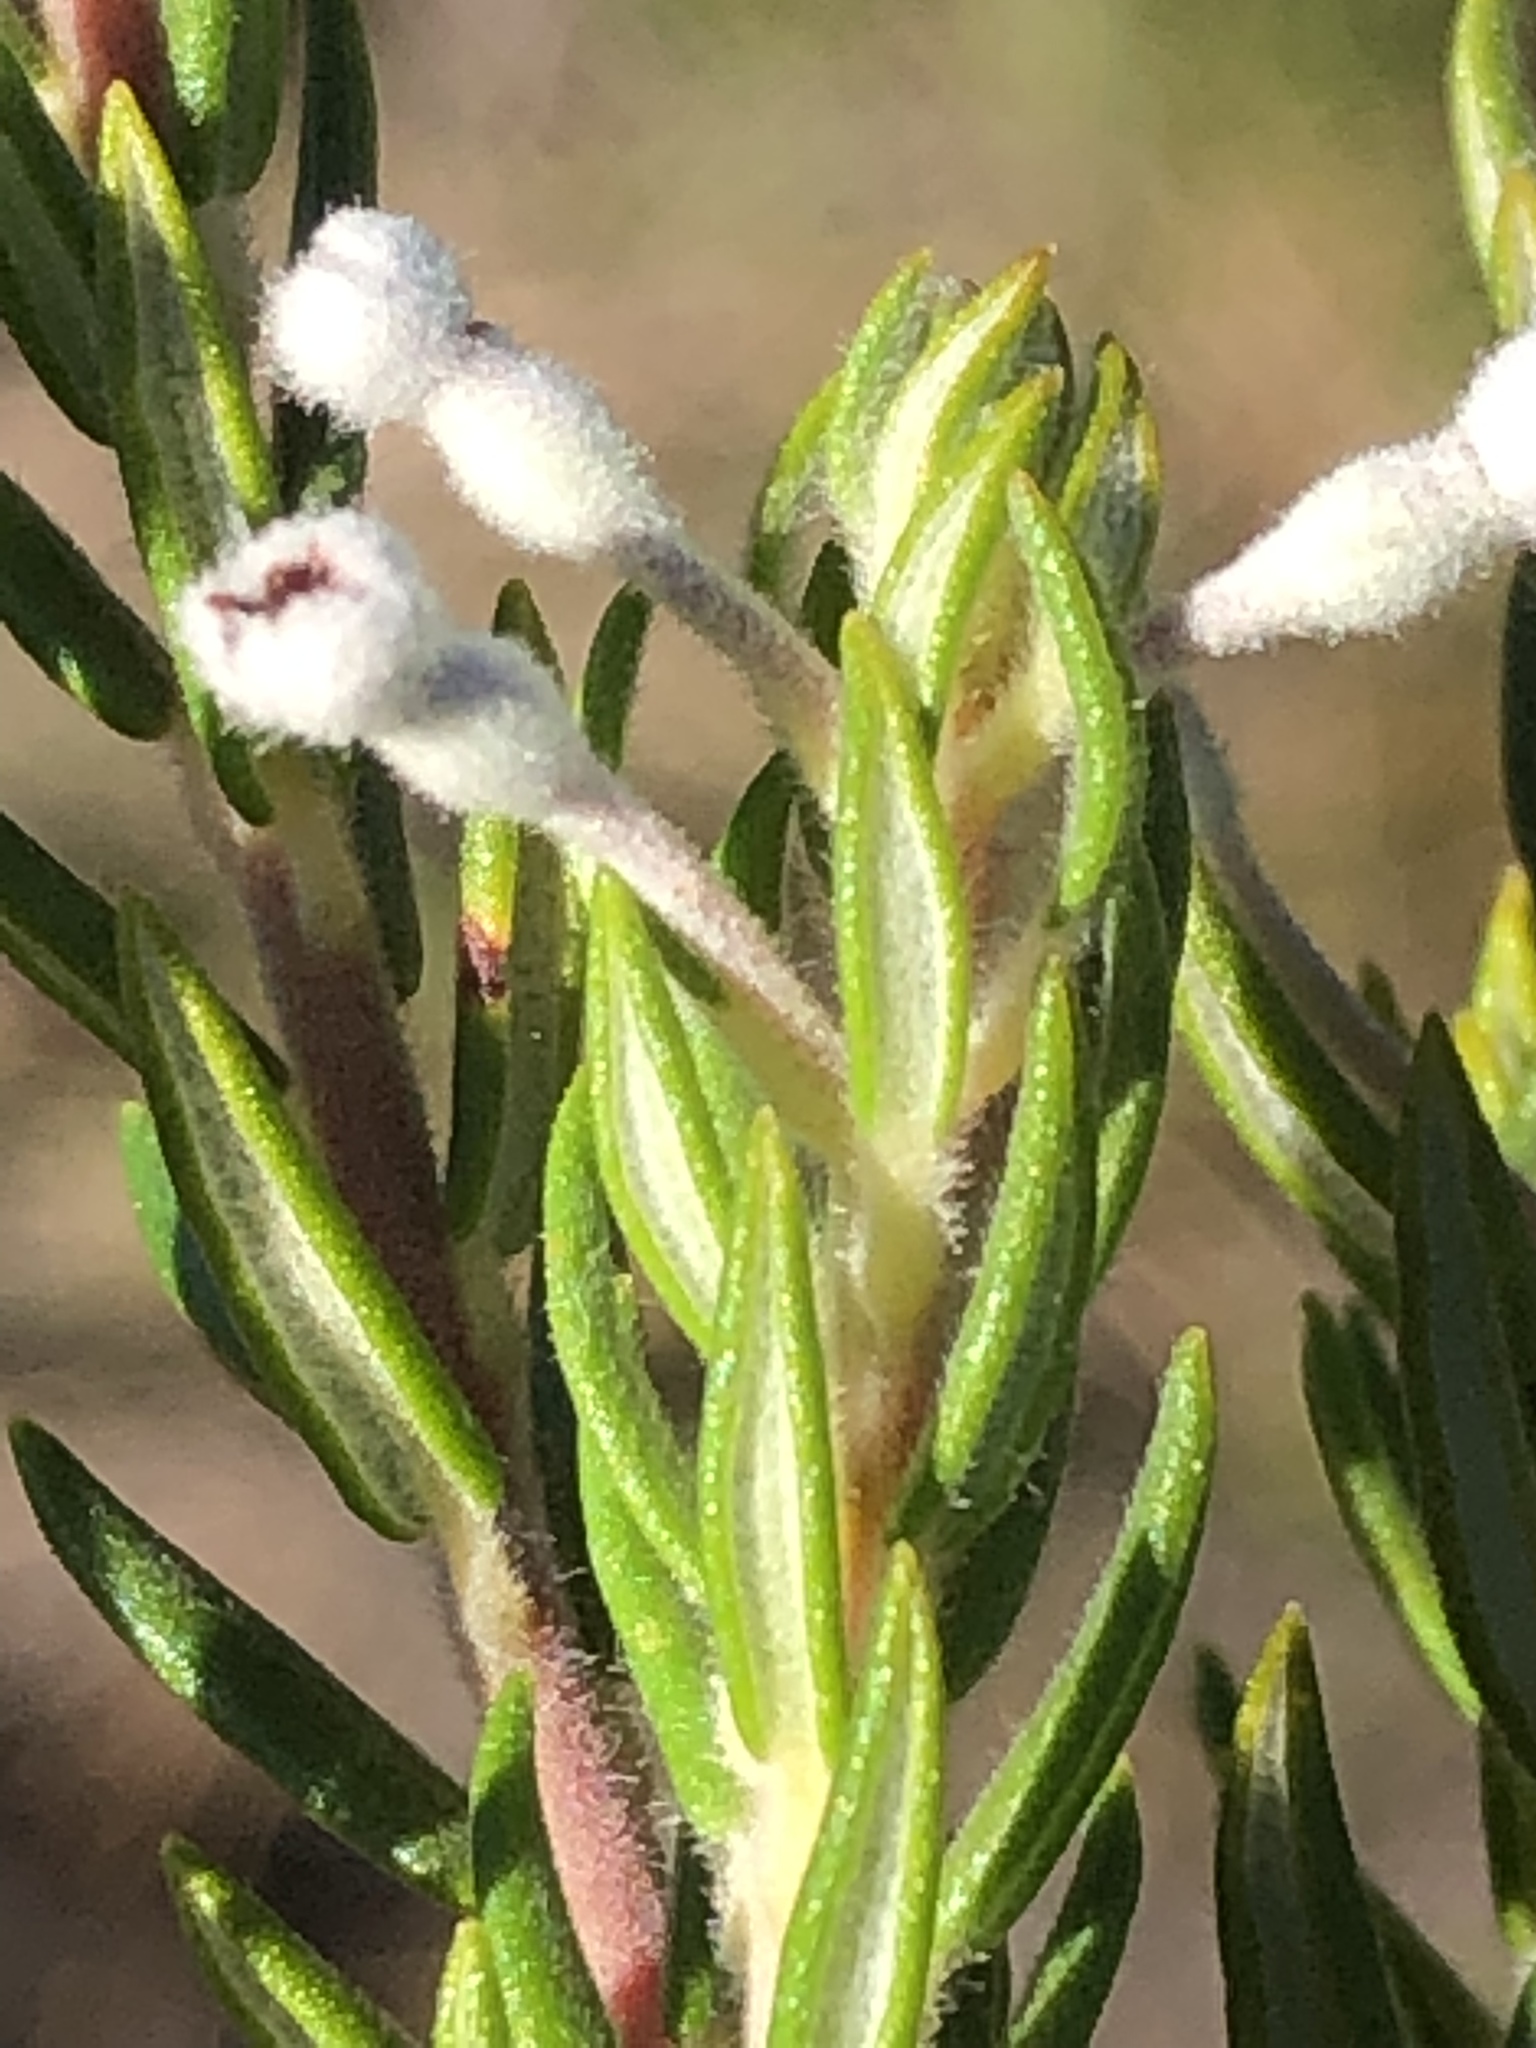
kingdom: Plantae
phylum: Tracheophyta
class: Magnoliopsida
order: Rosales
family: Rhamnaceae
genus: Phylica
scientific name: Phylica pinea
